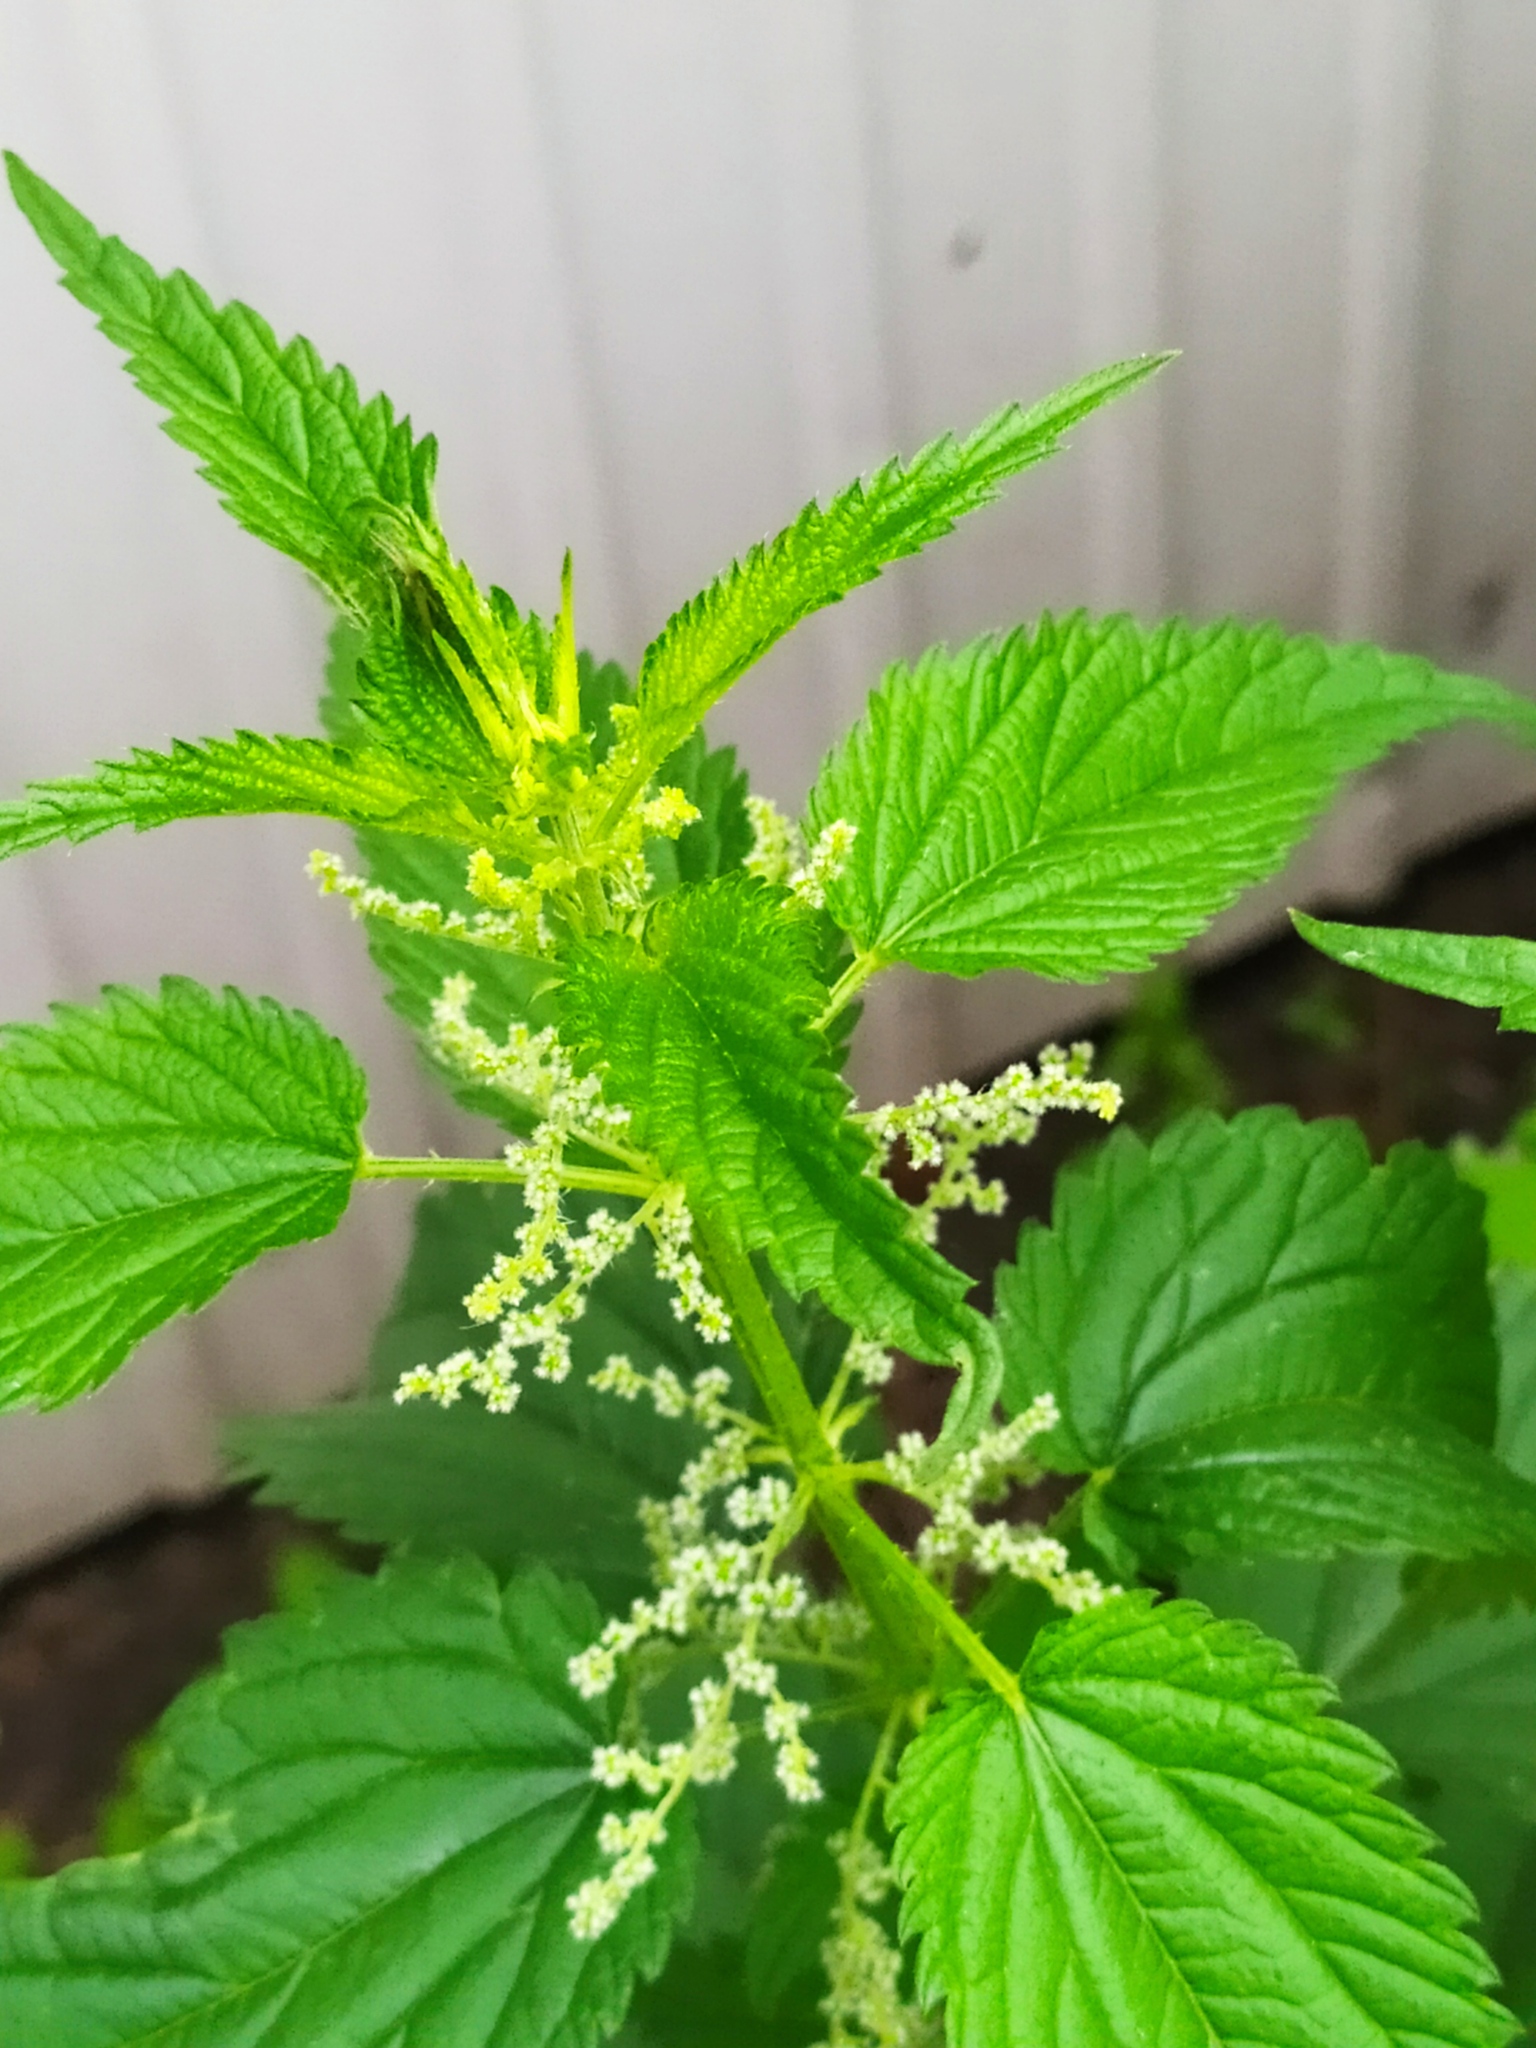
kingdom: Plantae
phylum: Tracheophyta
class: Magnoliopsida
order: Rosales
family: Urticaceae
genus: Urtica
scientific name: Urtica dioica
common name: Common nettle
